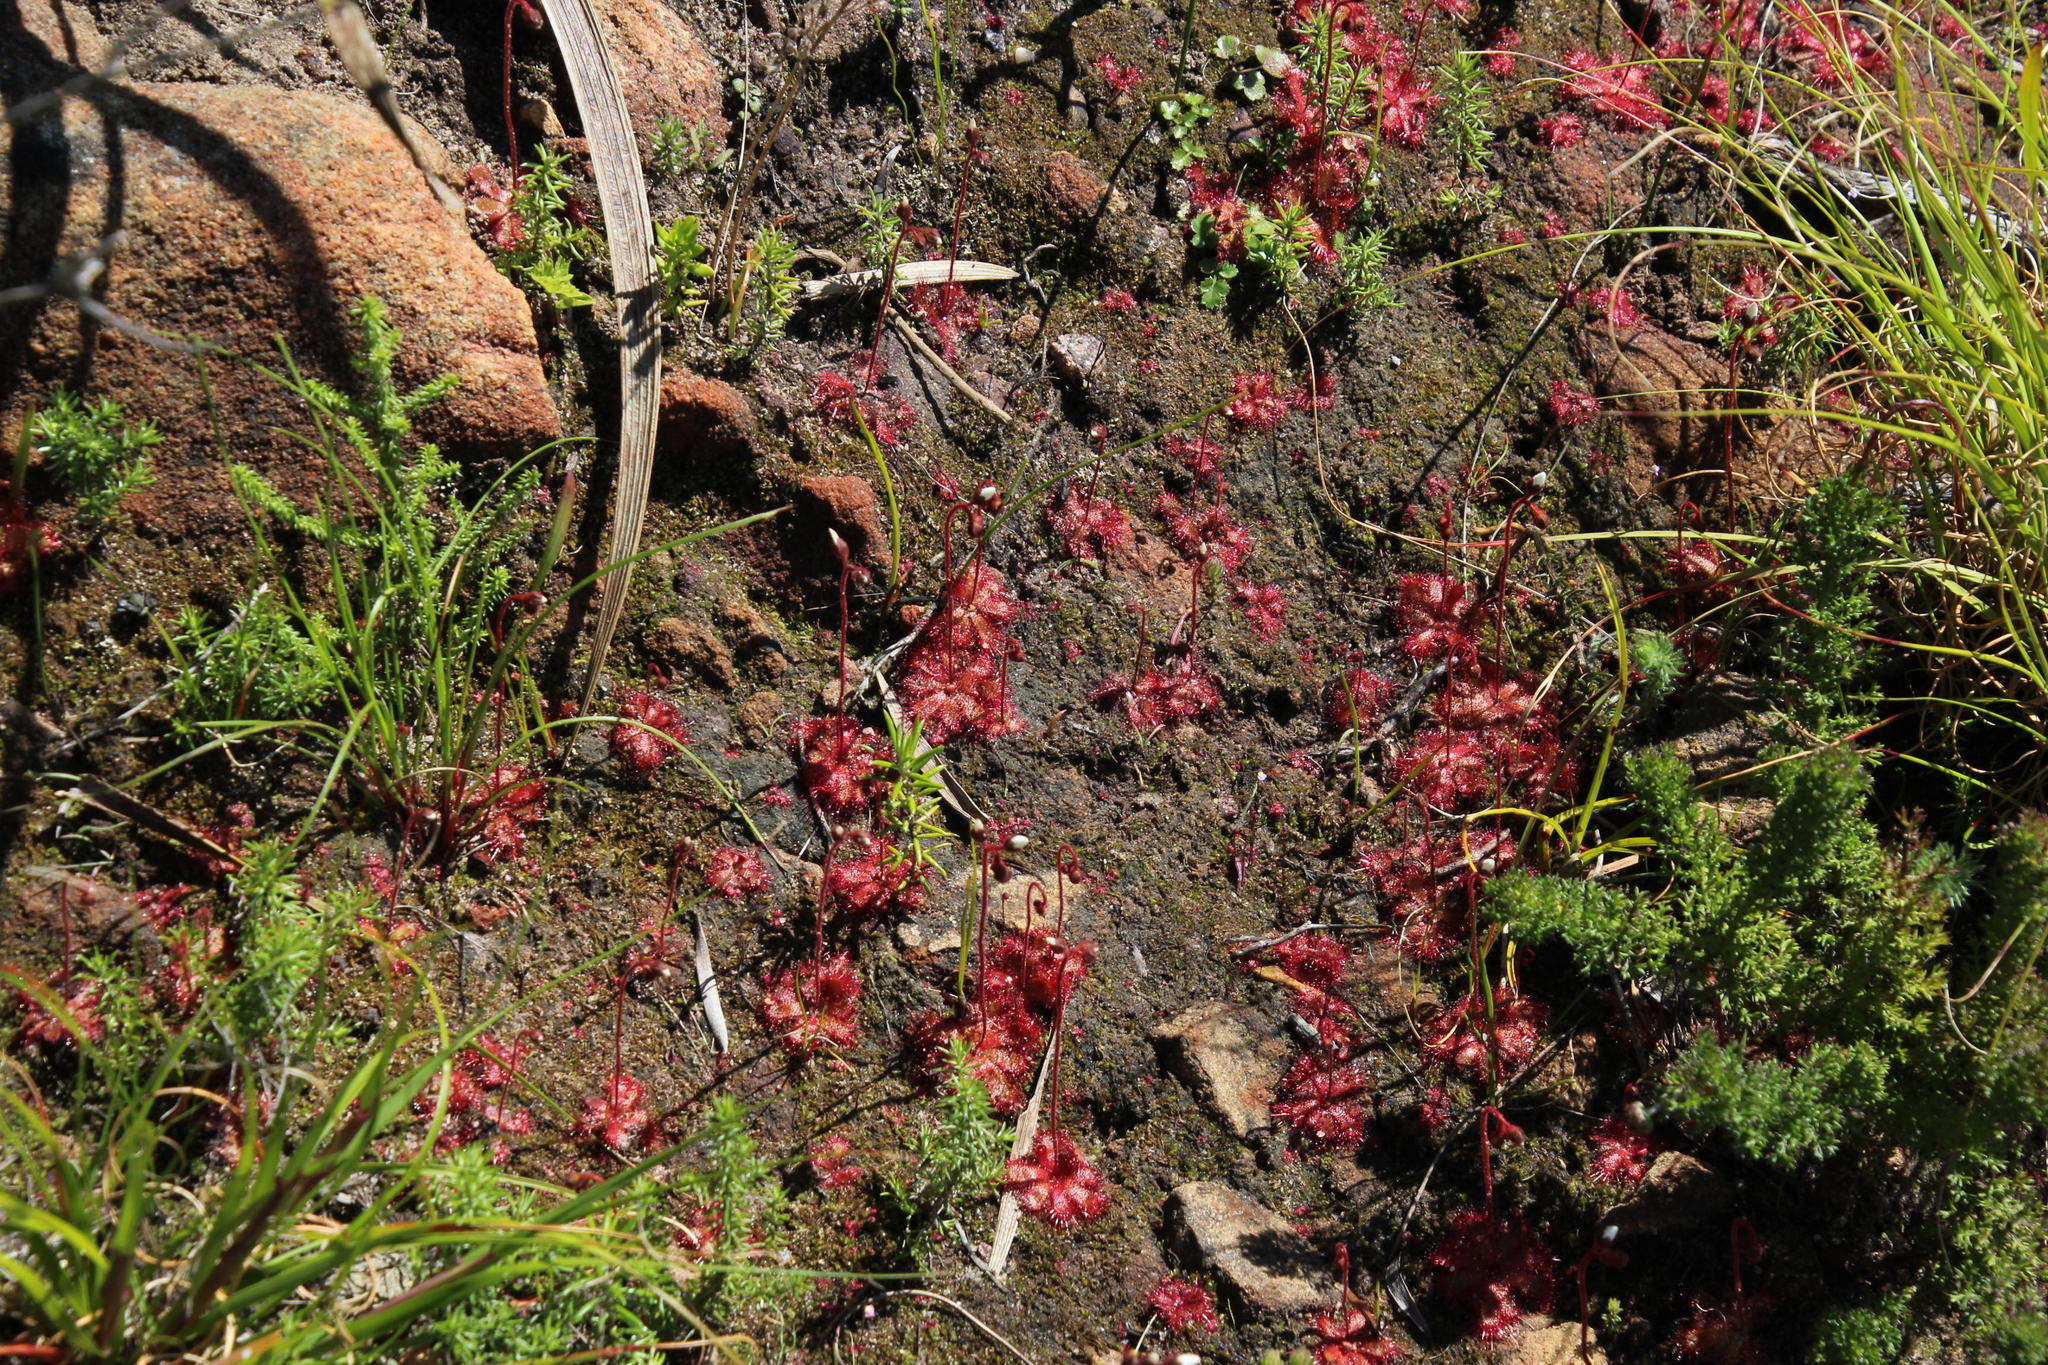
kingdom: Plantae
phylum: Tracheophyta
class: Magnoliopsida
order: Caryophyllales
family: Droseraceae
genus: Drosera
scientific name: Drosera trinervia
